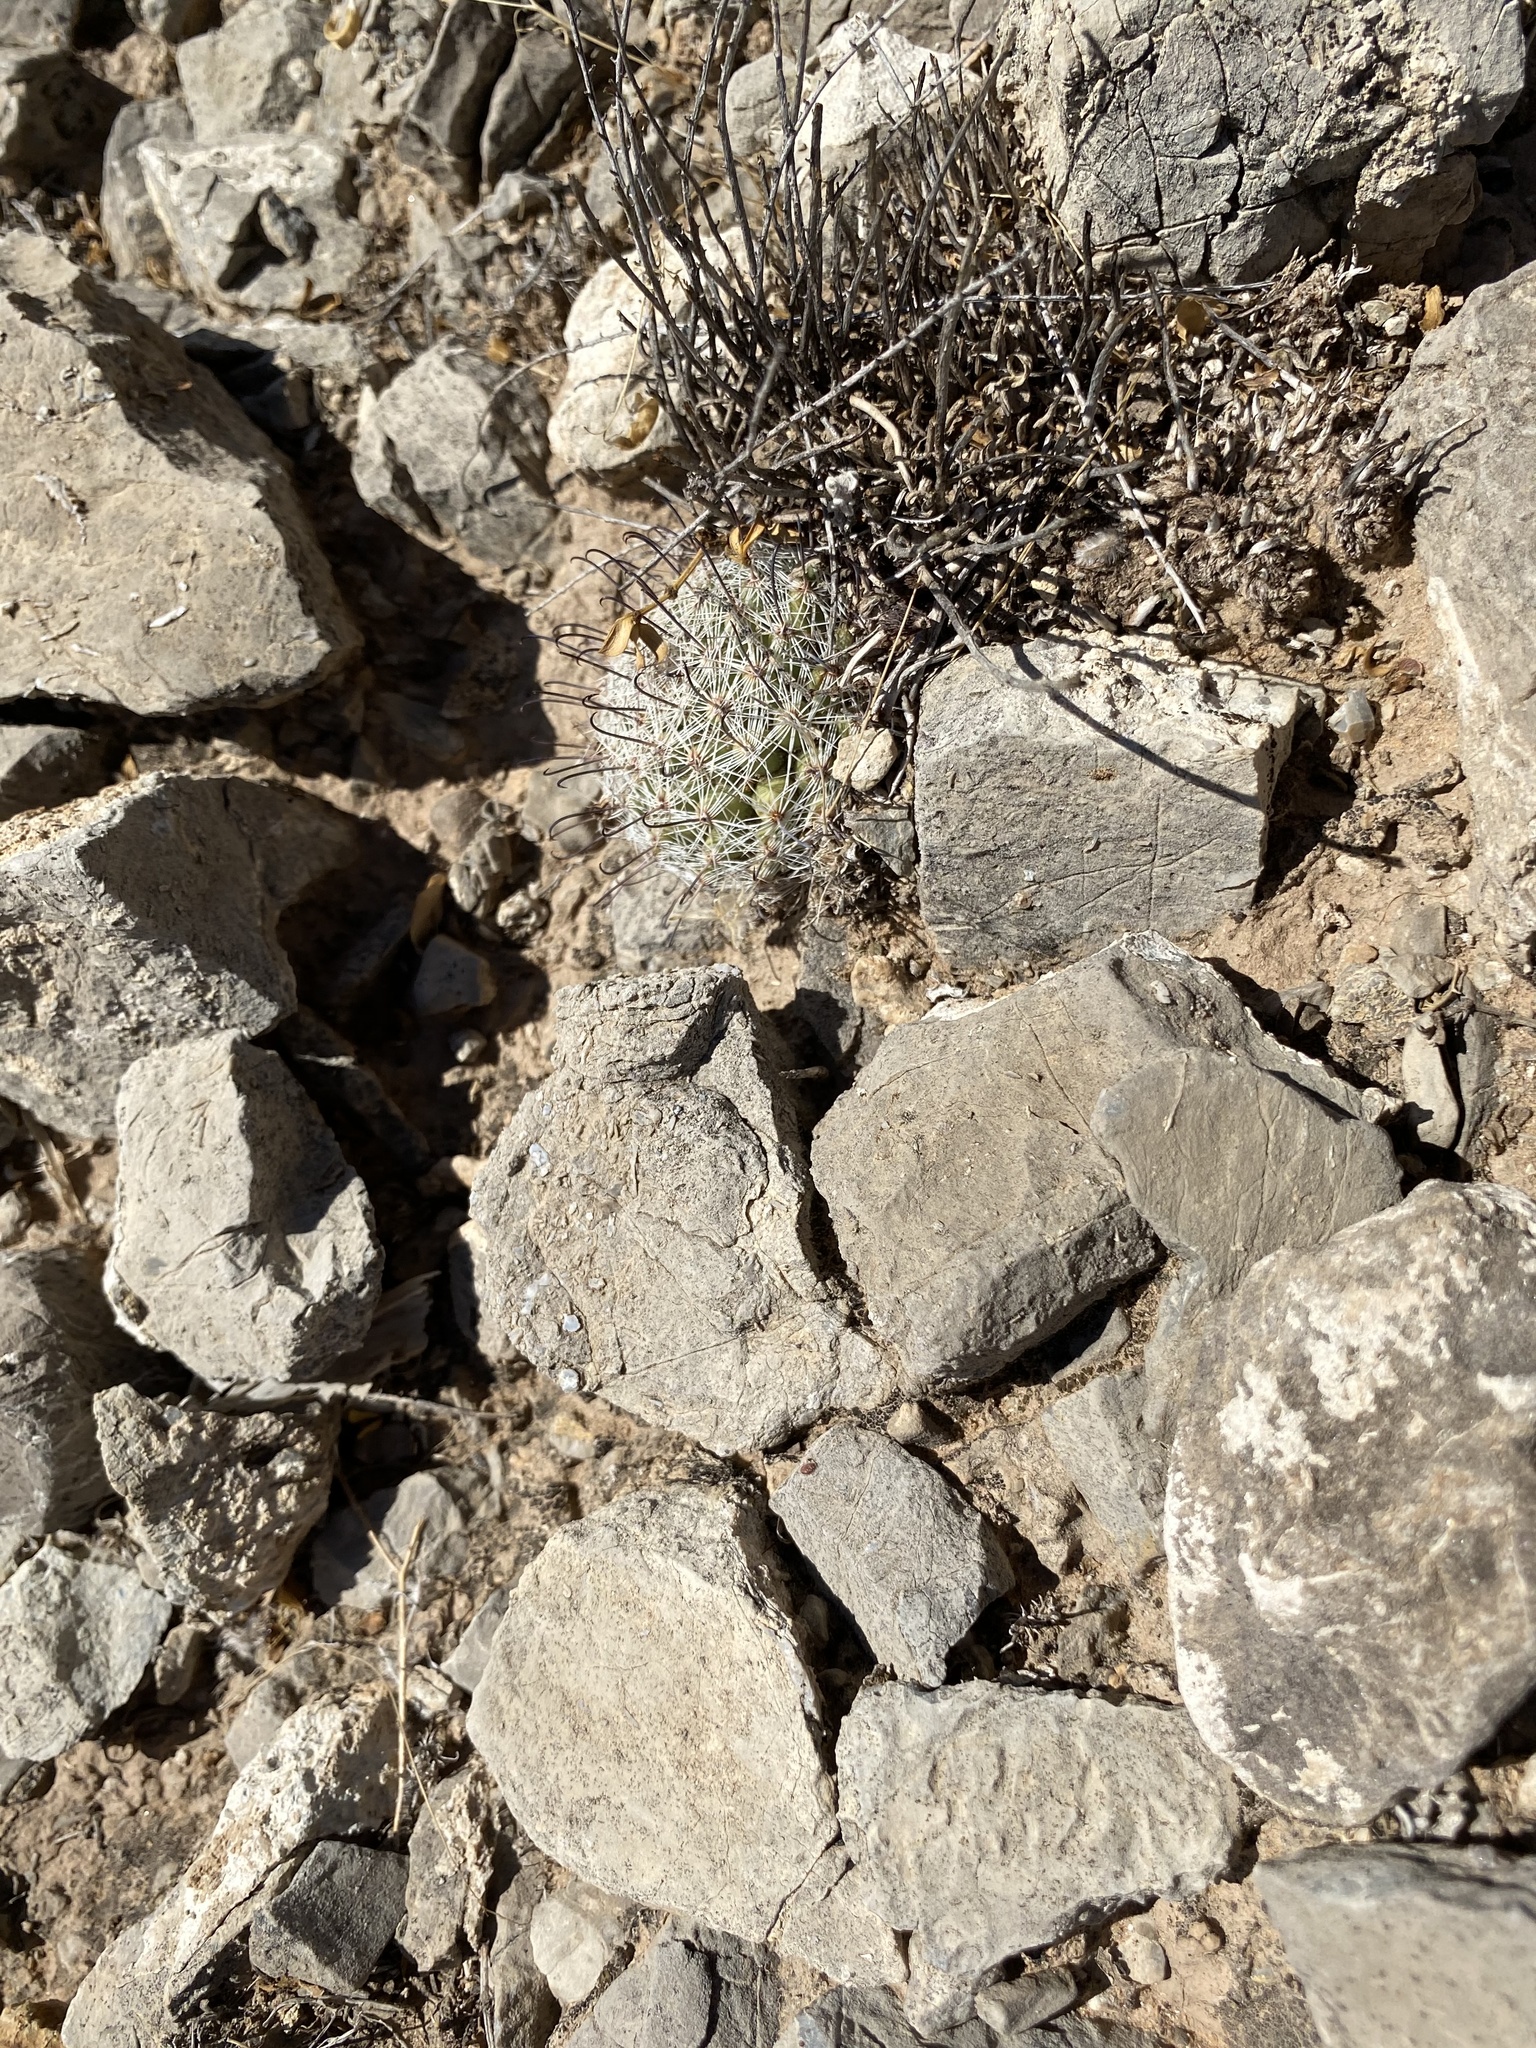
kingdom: Plantae
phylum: Tracheophyta
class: Magnoliopsida
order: Caryophyllales
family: Cactaceae
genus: Cochemiea
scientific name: Cochemiea grahamii
